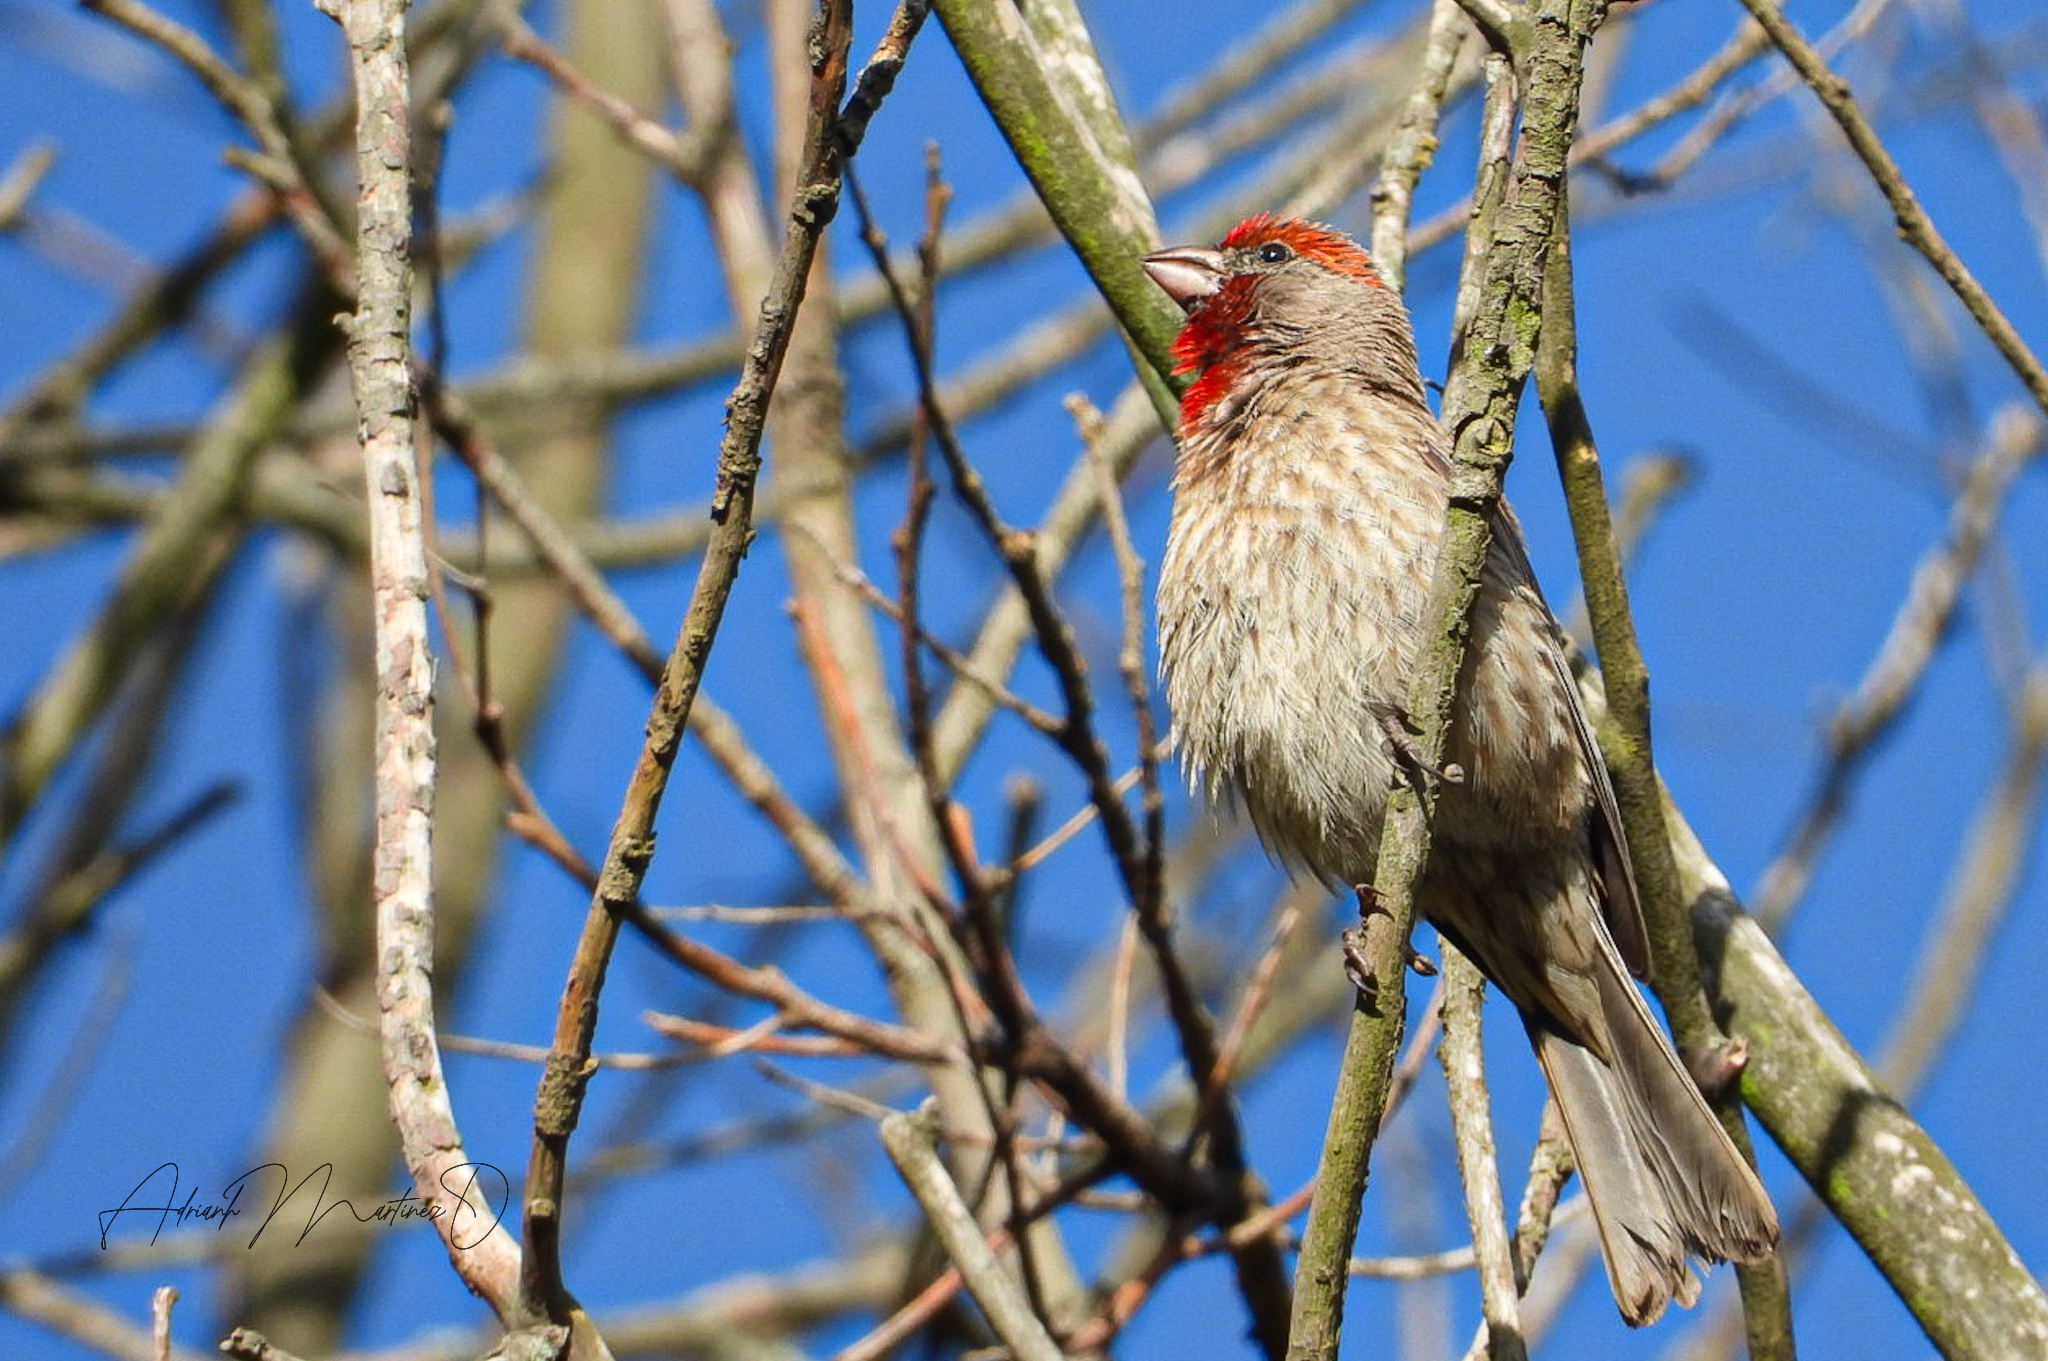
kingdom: Animalia
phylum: Chordata
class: Aves
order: Passeriformes
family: Fringillidae
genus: Haemorhous
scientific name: Haemorhous mexicanus
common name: House finch
